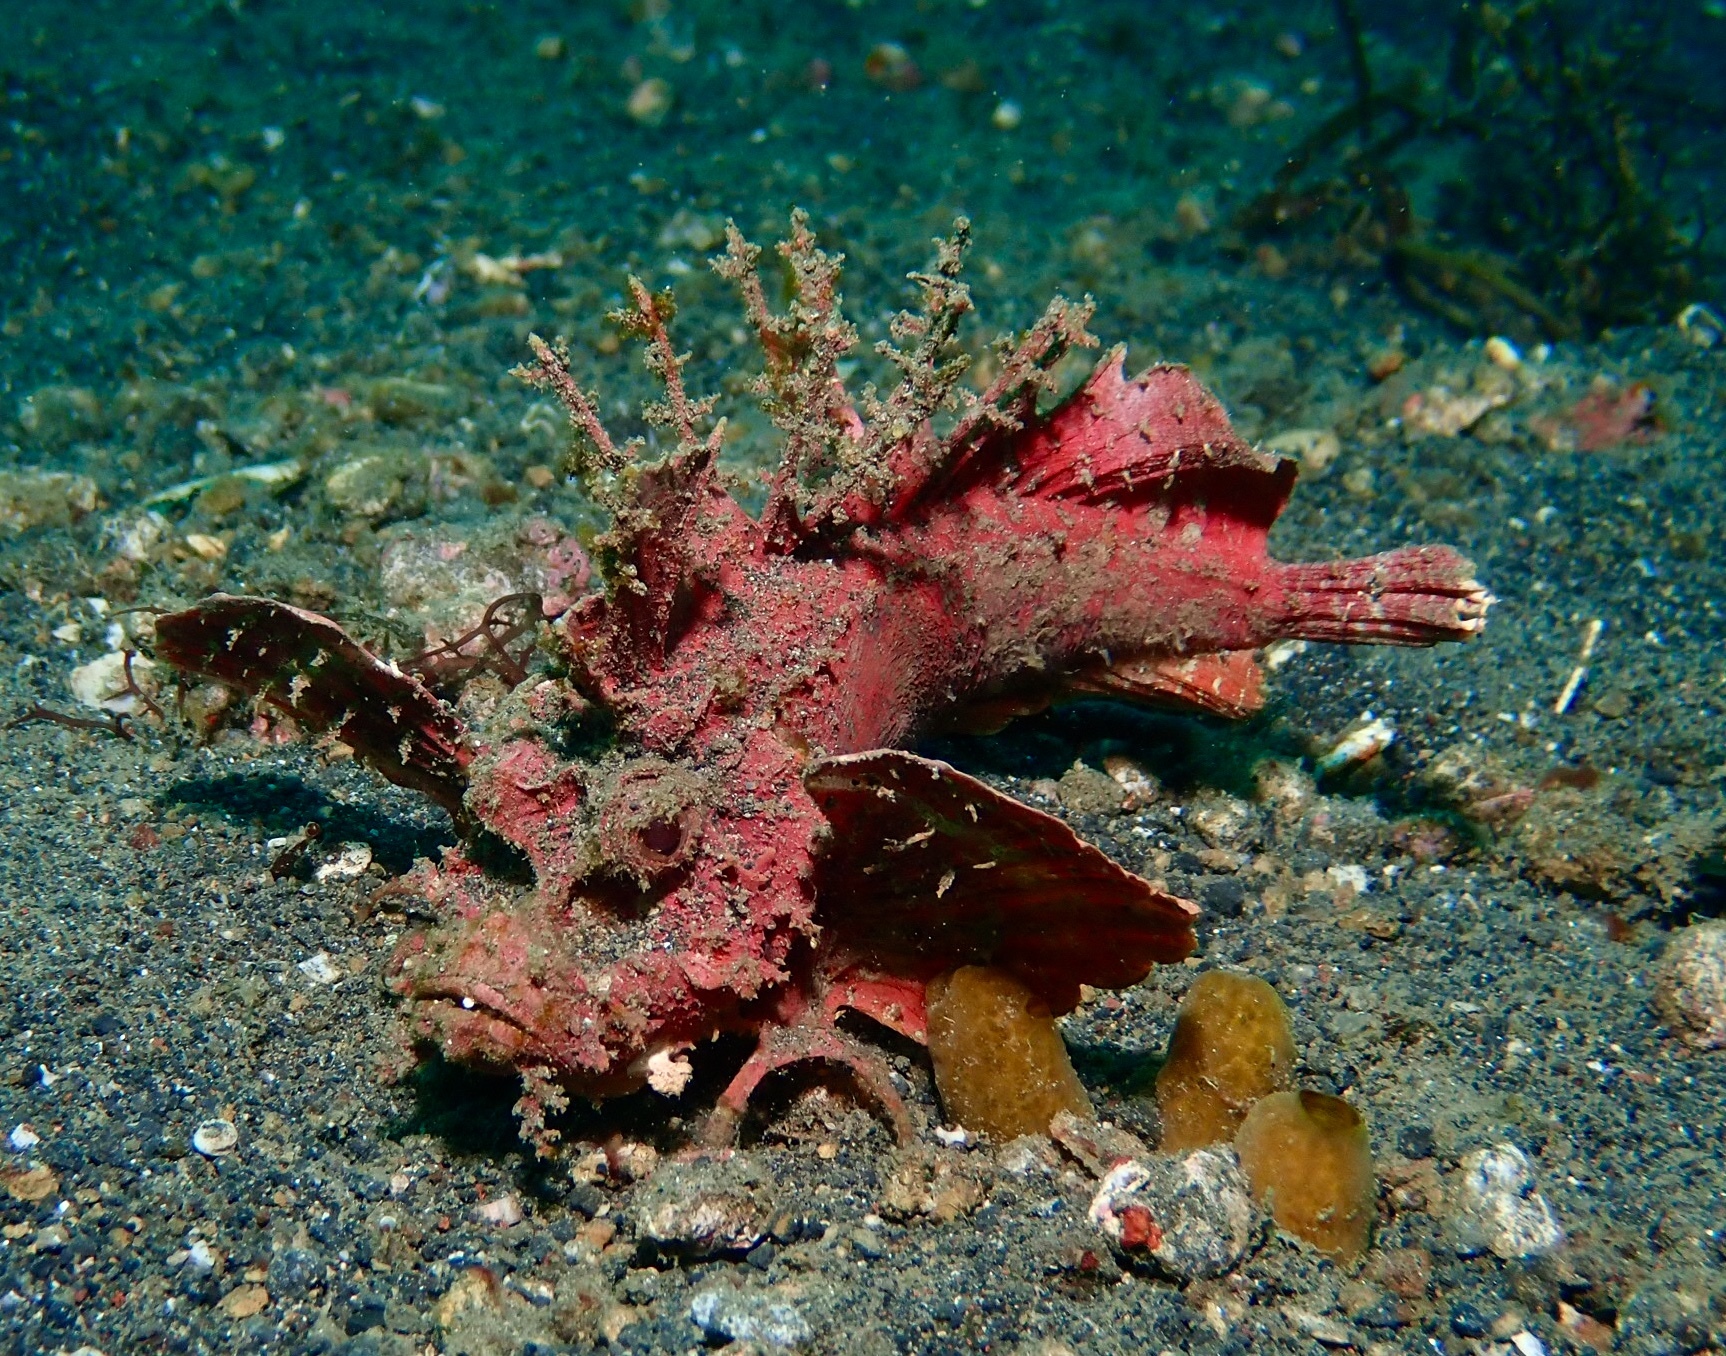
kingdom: Animalia
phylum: Chordata
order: Scorpaeniformes
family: Synanceiidae
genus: Inimicus
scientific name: Inimicus didactylus
